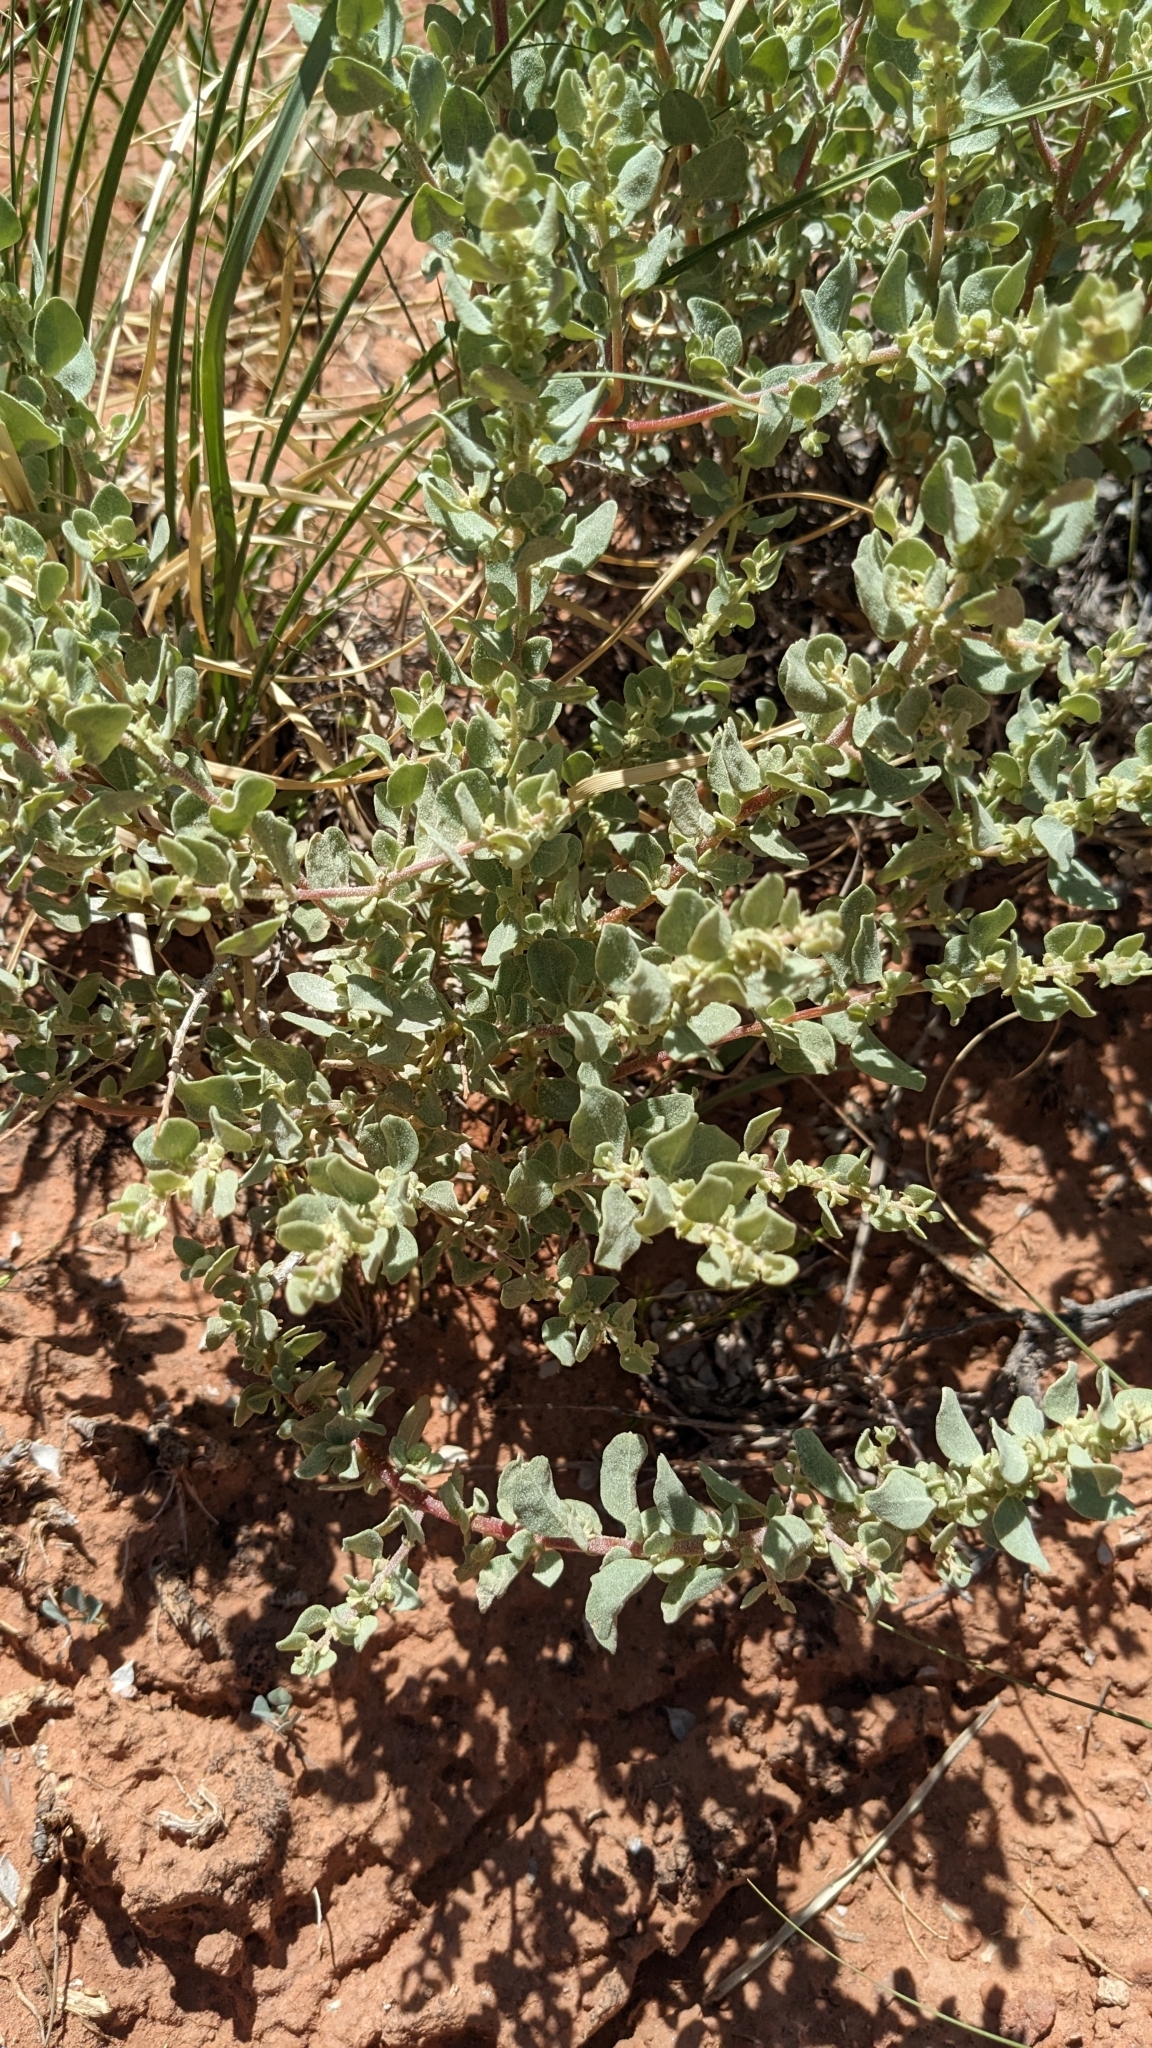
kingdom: Plantae
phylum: Tracheophyta
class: Magnoliopsida
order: Caryophyllales
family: Amaranthaceae
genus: Atriplex
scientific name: Atriplex confertifolia
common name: Shadscale
